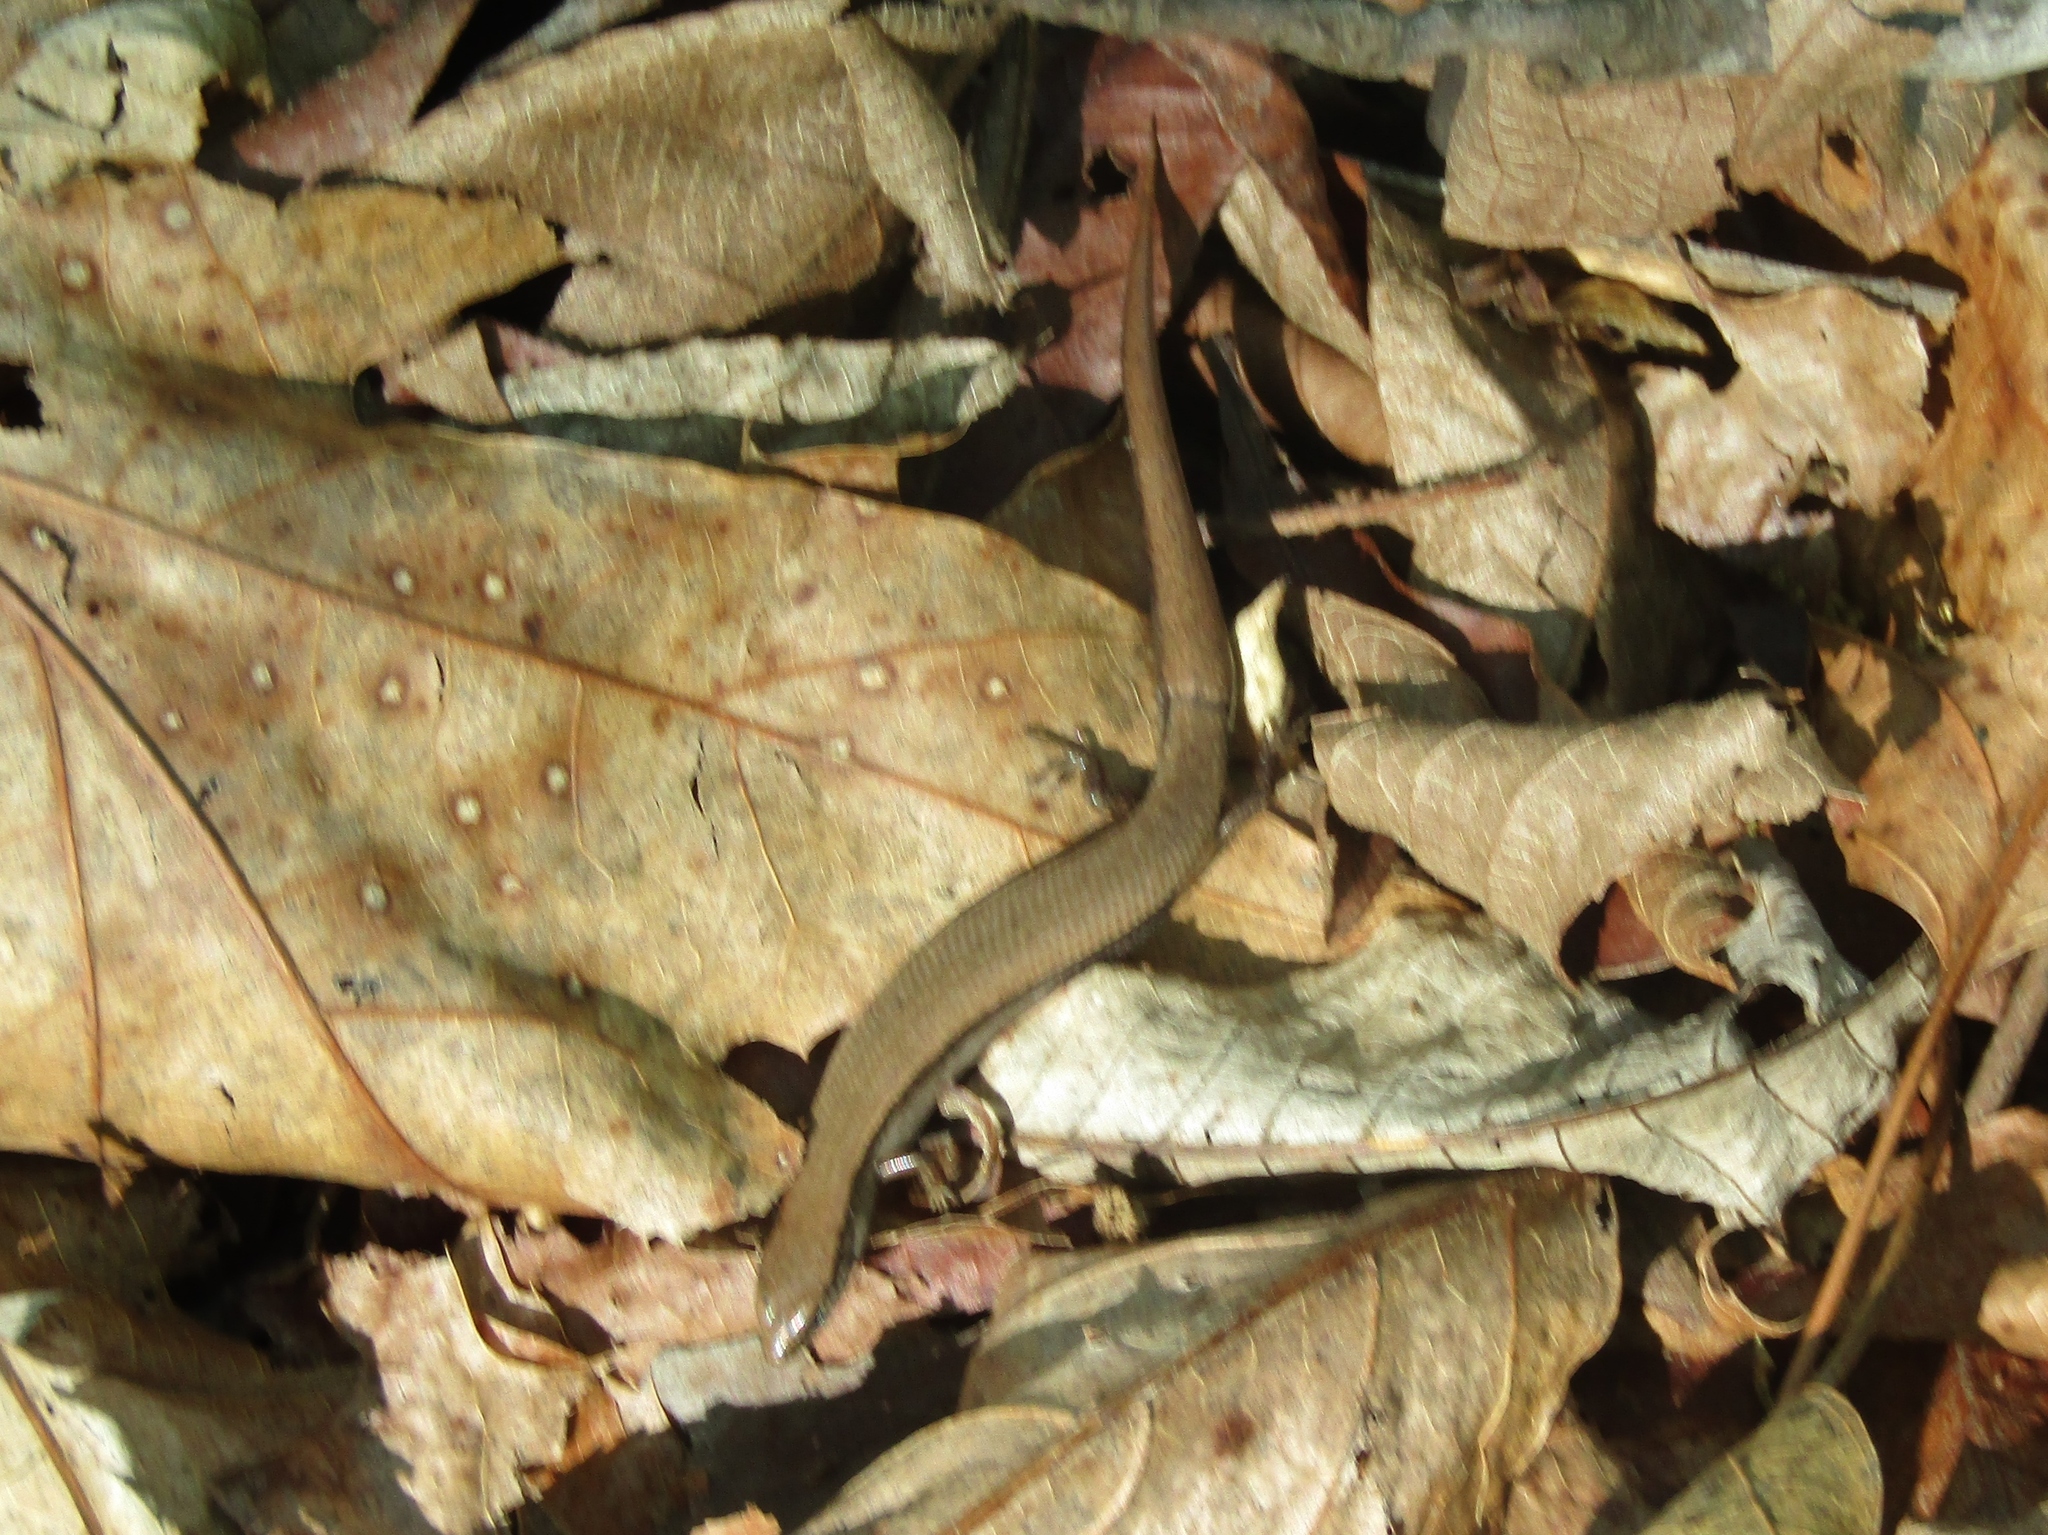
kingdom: Animalia
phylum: Chordata
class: Squamata
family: Scincidae
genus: Scincella
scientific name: Scincella lateralis
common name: Ground skink
